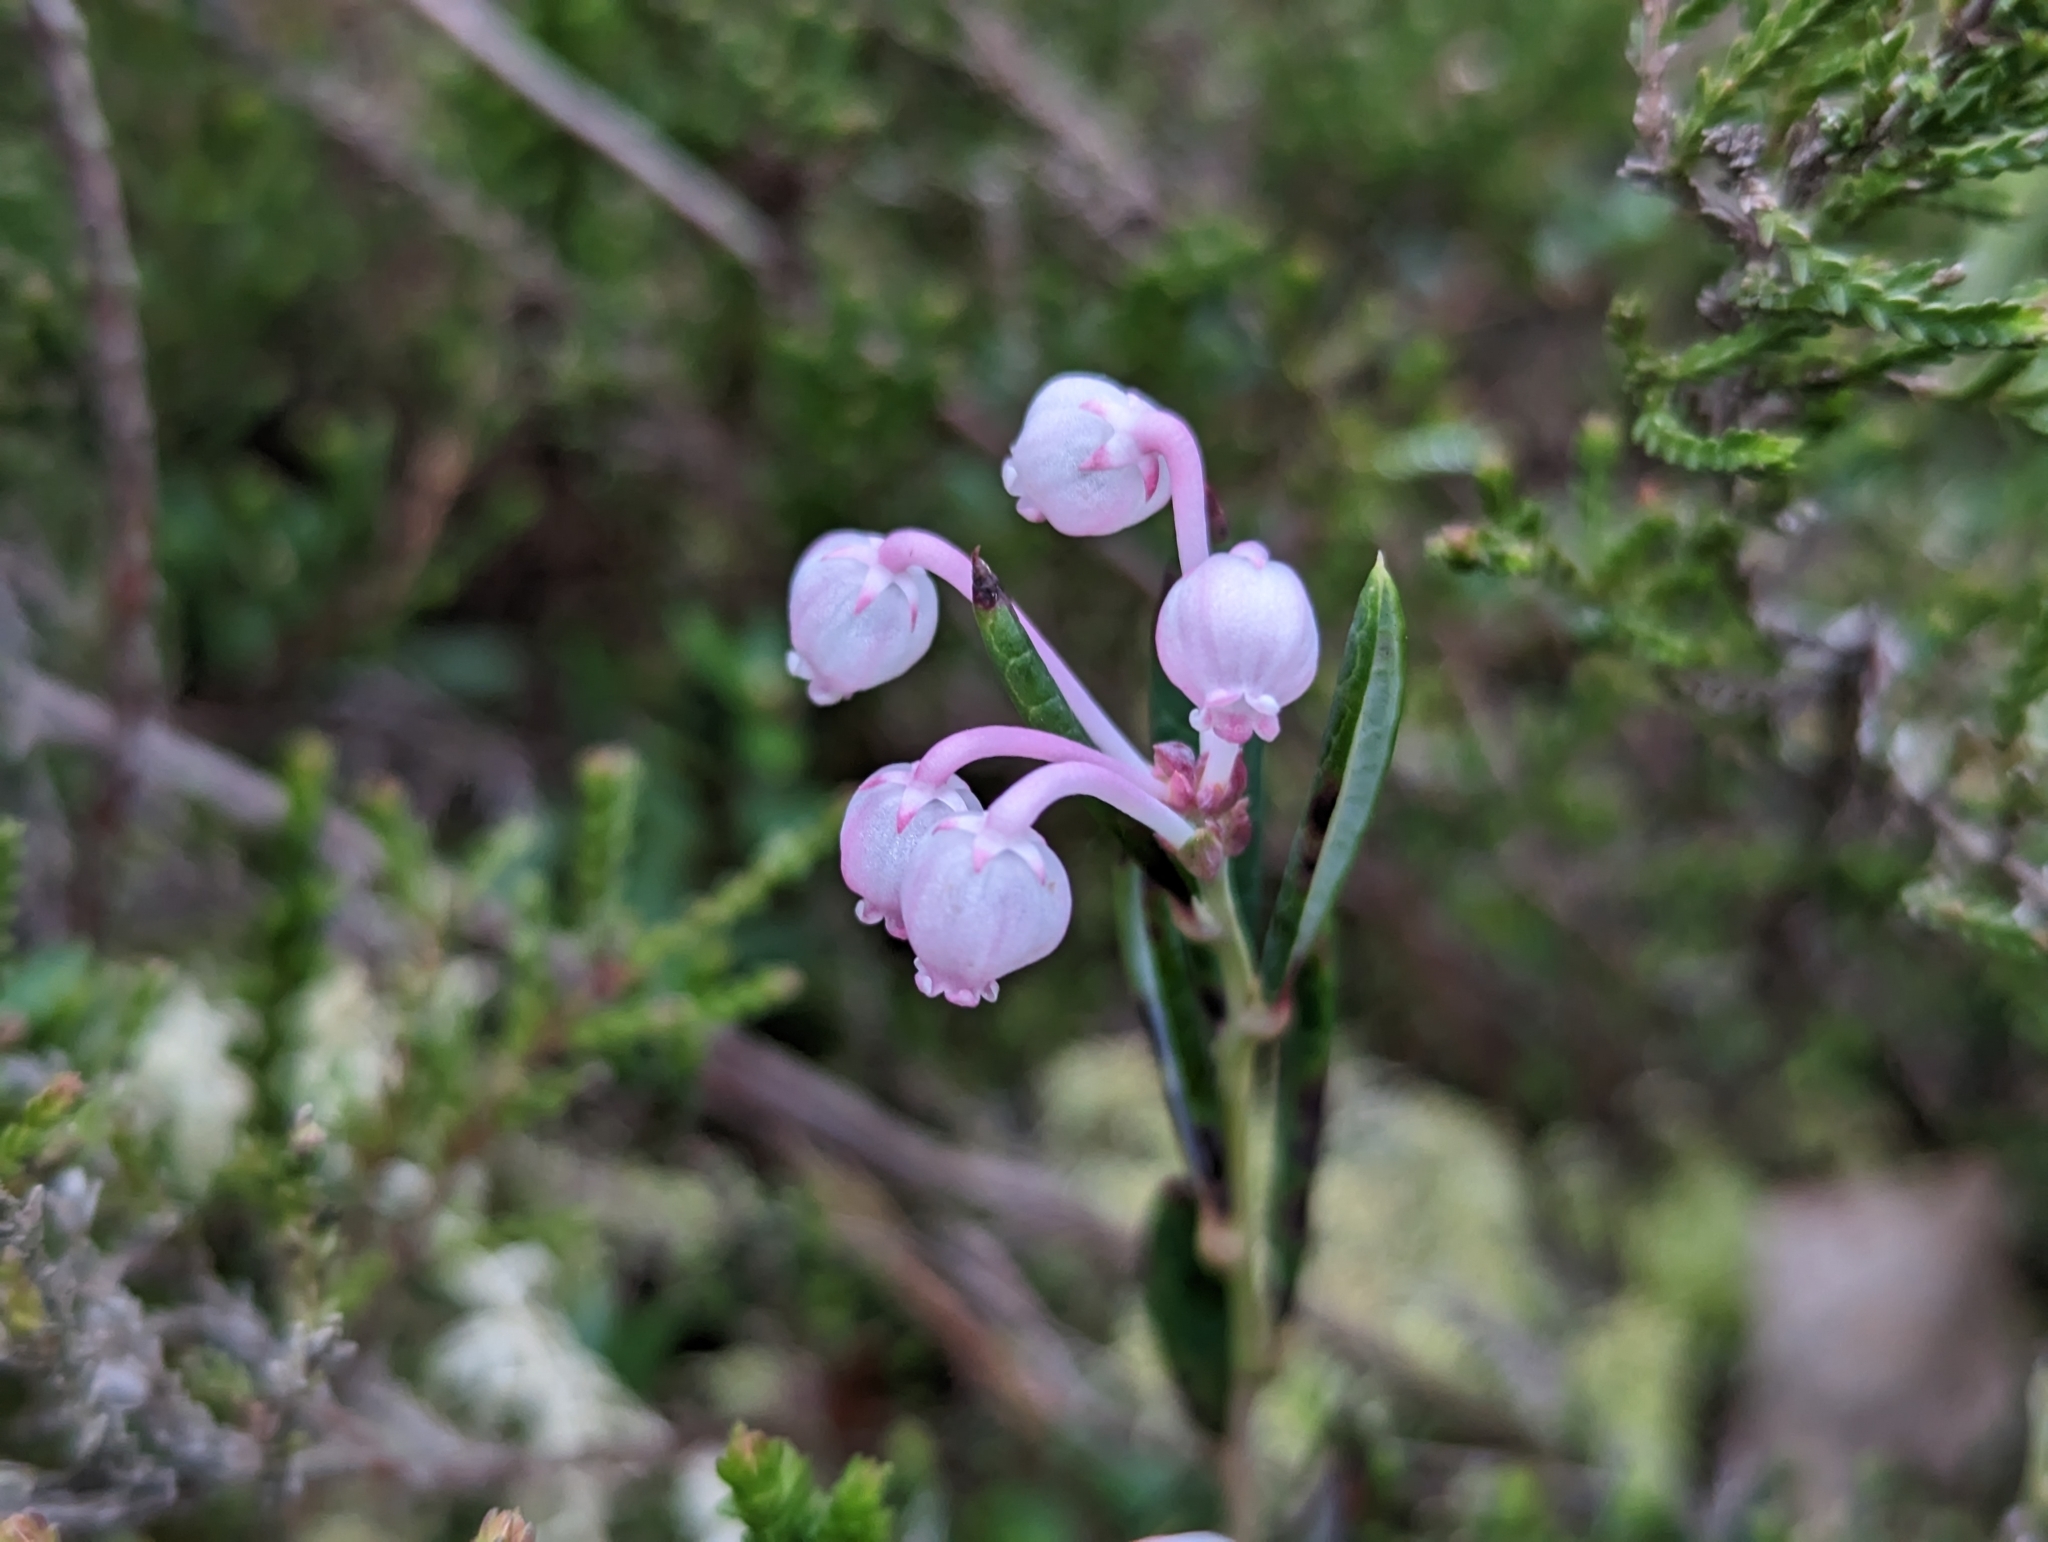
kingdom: Plantae
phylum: Tracheophyta
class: Magnoliopsida
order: Ericales
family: Ericaceae
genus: Andromeda
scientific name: Andromeda polifolia
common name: Bog-rosemary
